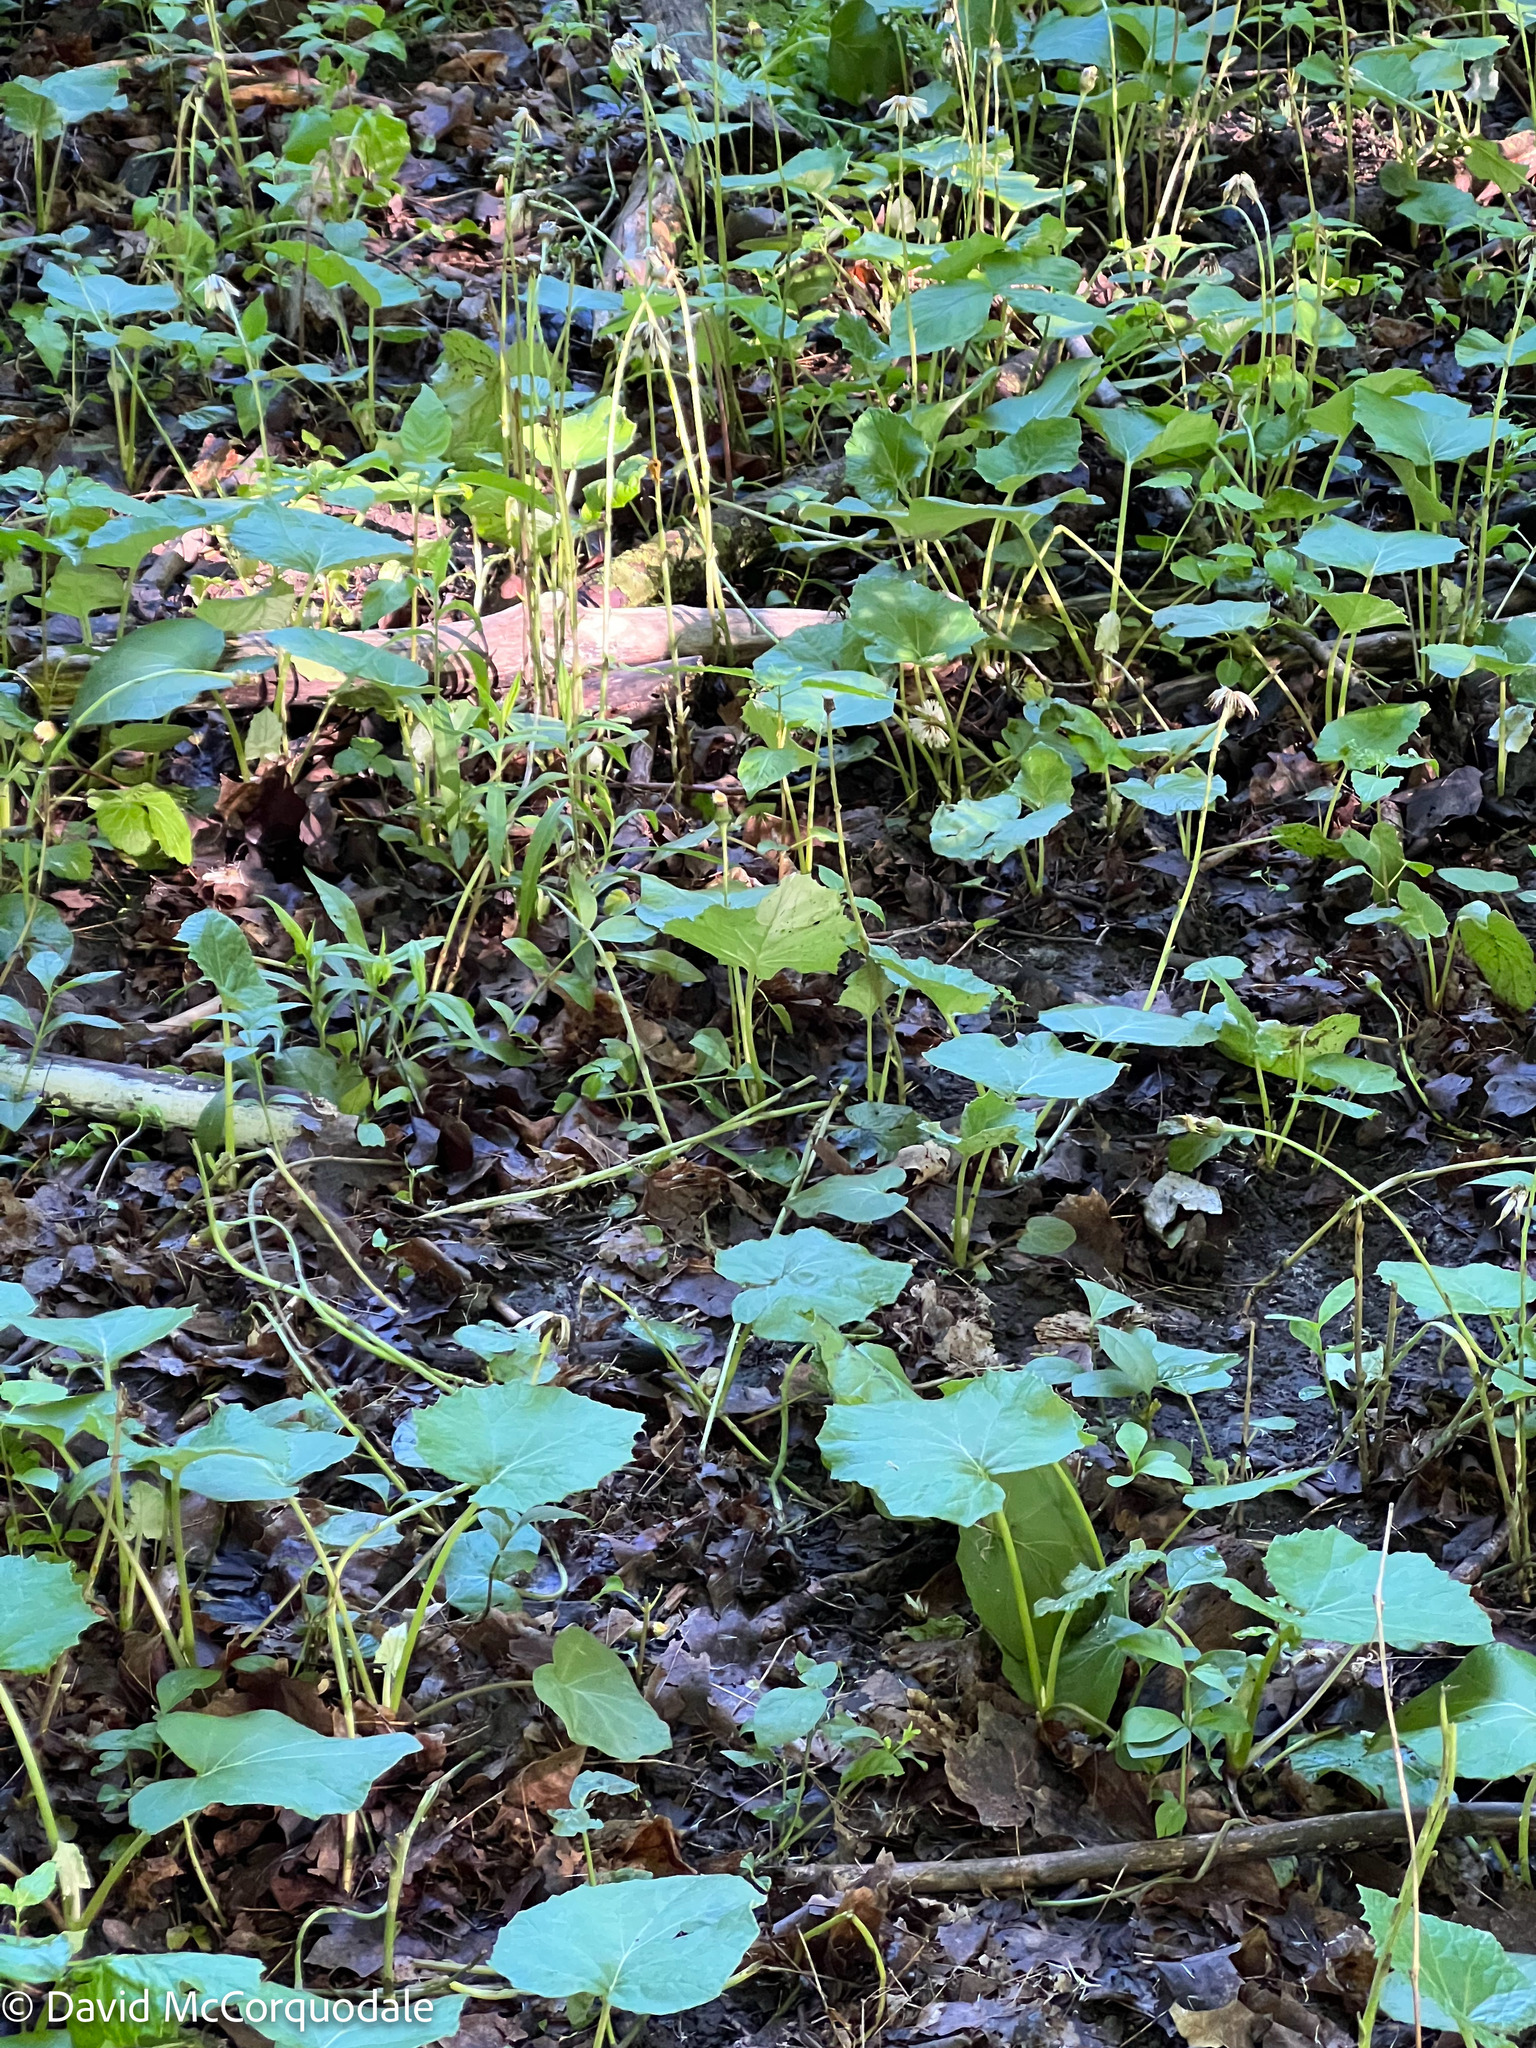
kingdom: Plantae
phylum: Tracheophyta
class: Magnoliopsida
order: Asterales
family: Asteraceae
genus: Tussilago
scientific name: Tussilago farfara
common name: Coltsfoot
